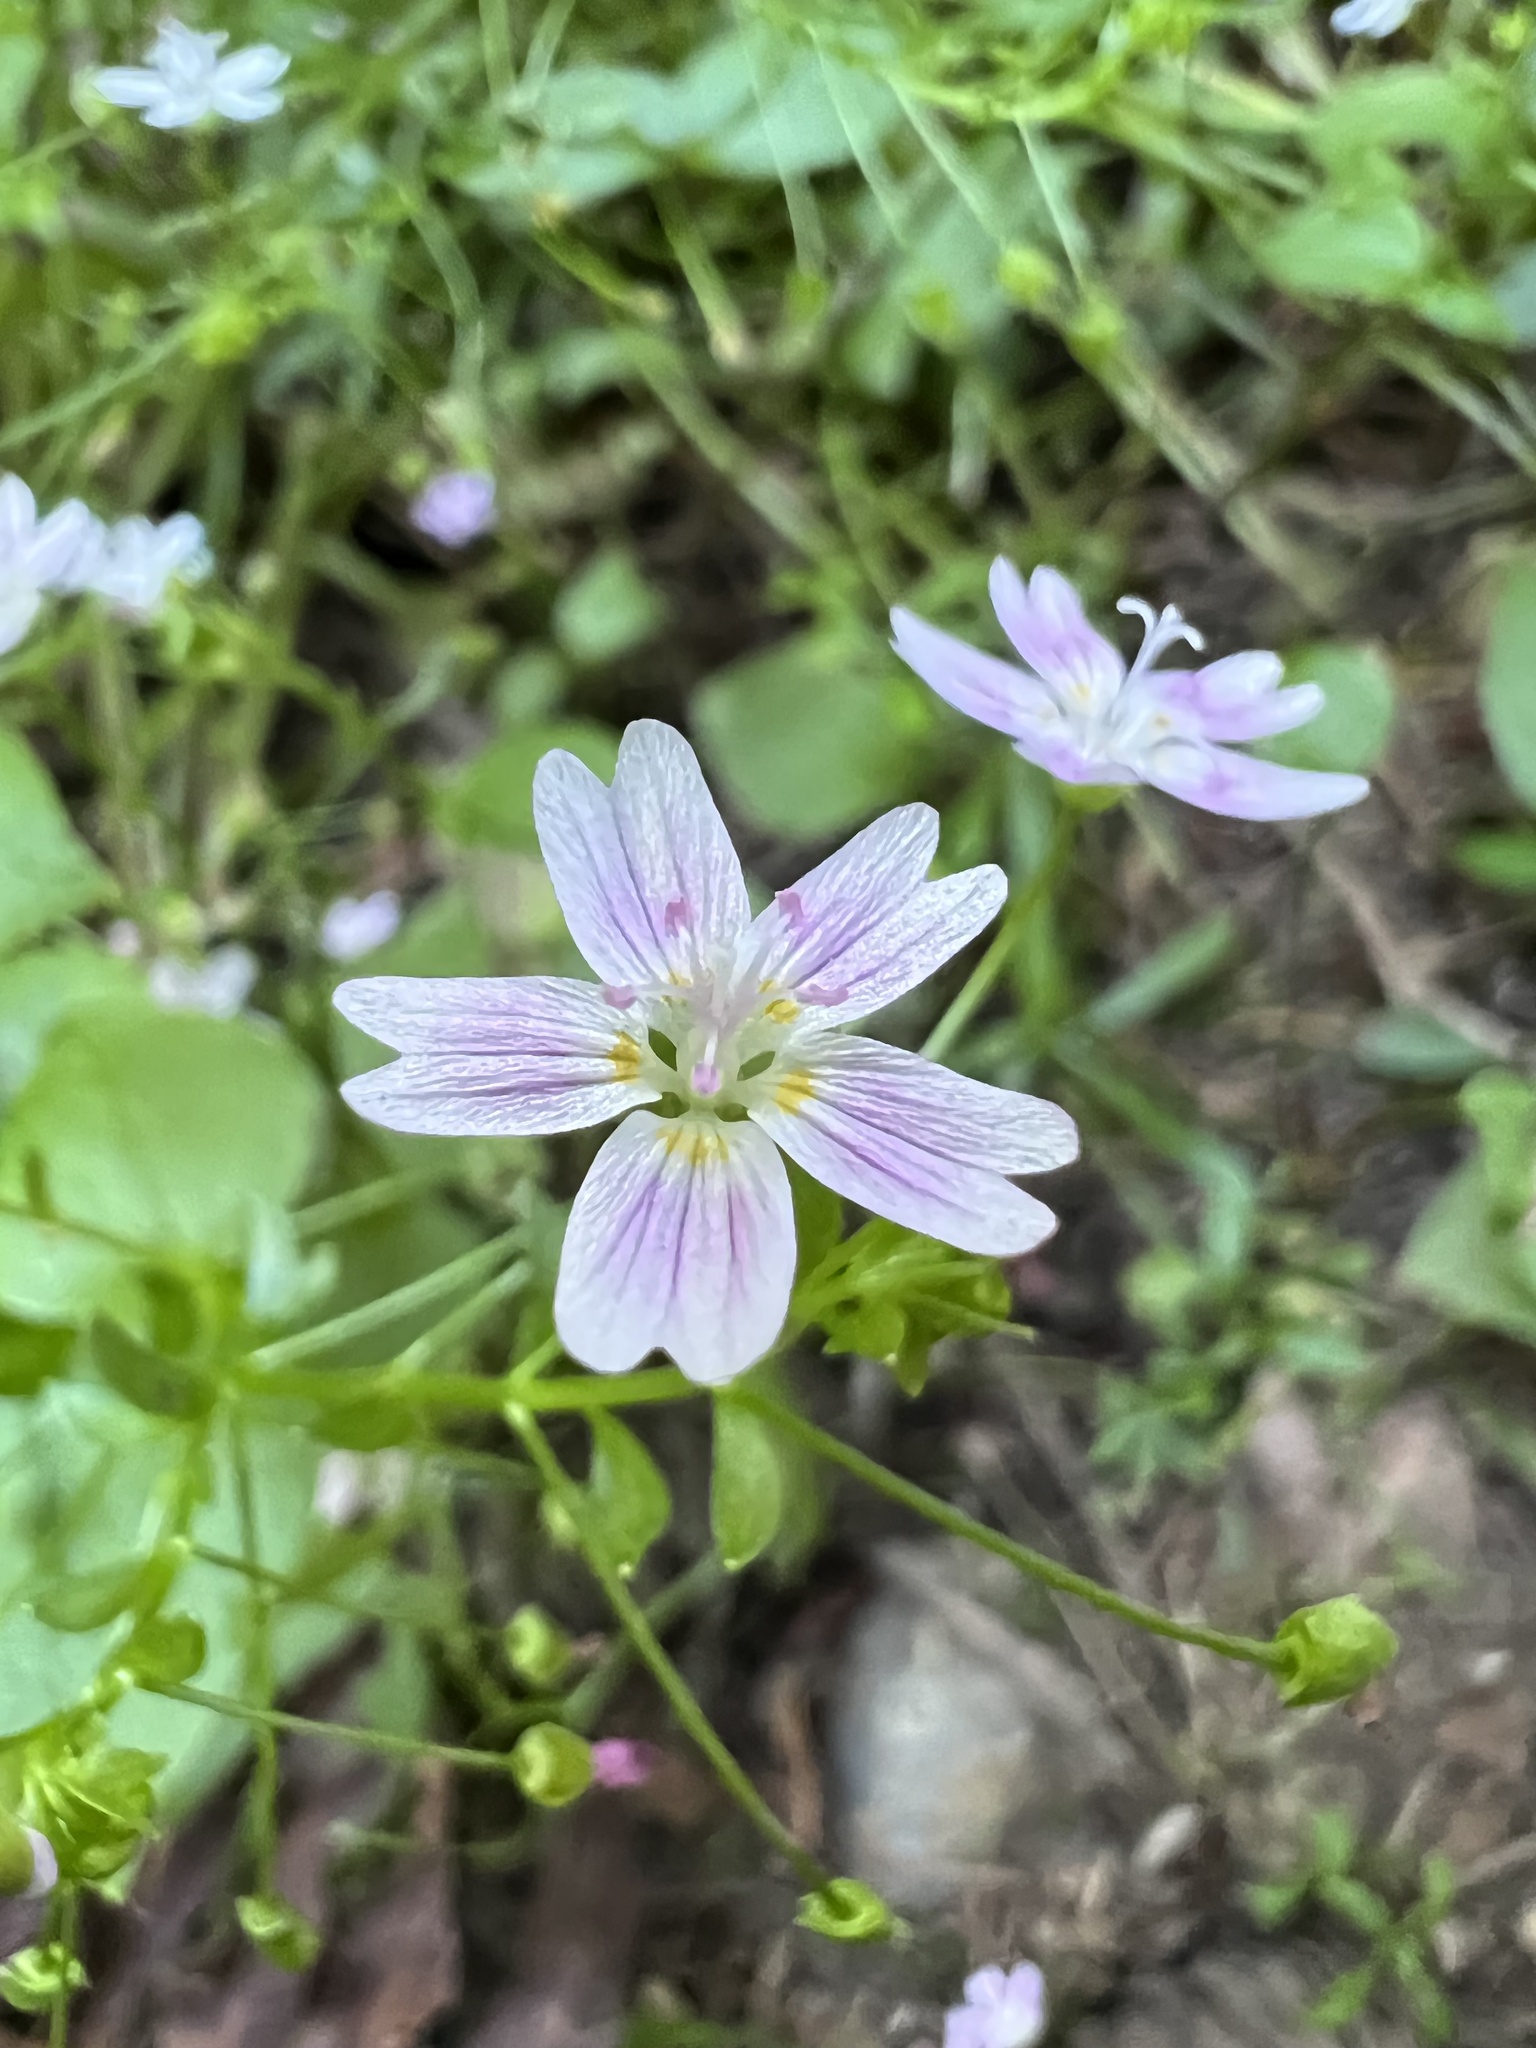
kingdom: Plantae
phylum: Tracheophyta
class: Magnoliopsida
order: Caryophyllales
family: Montiaceae
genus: Claytonia
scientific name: Claytonia sibirica
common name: Pink purslane
